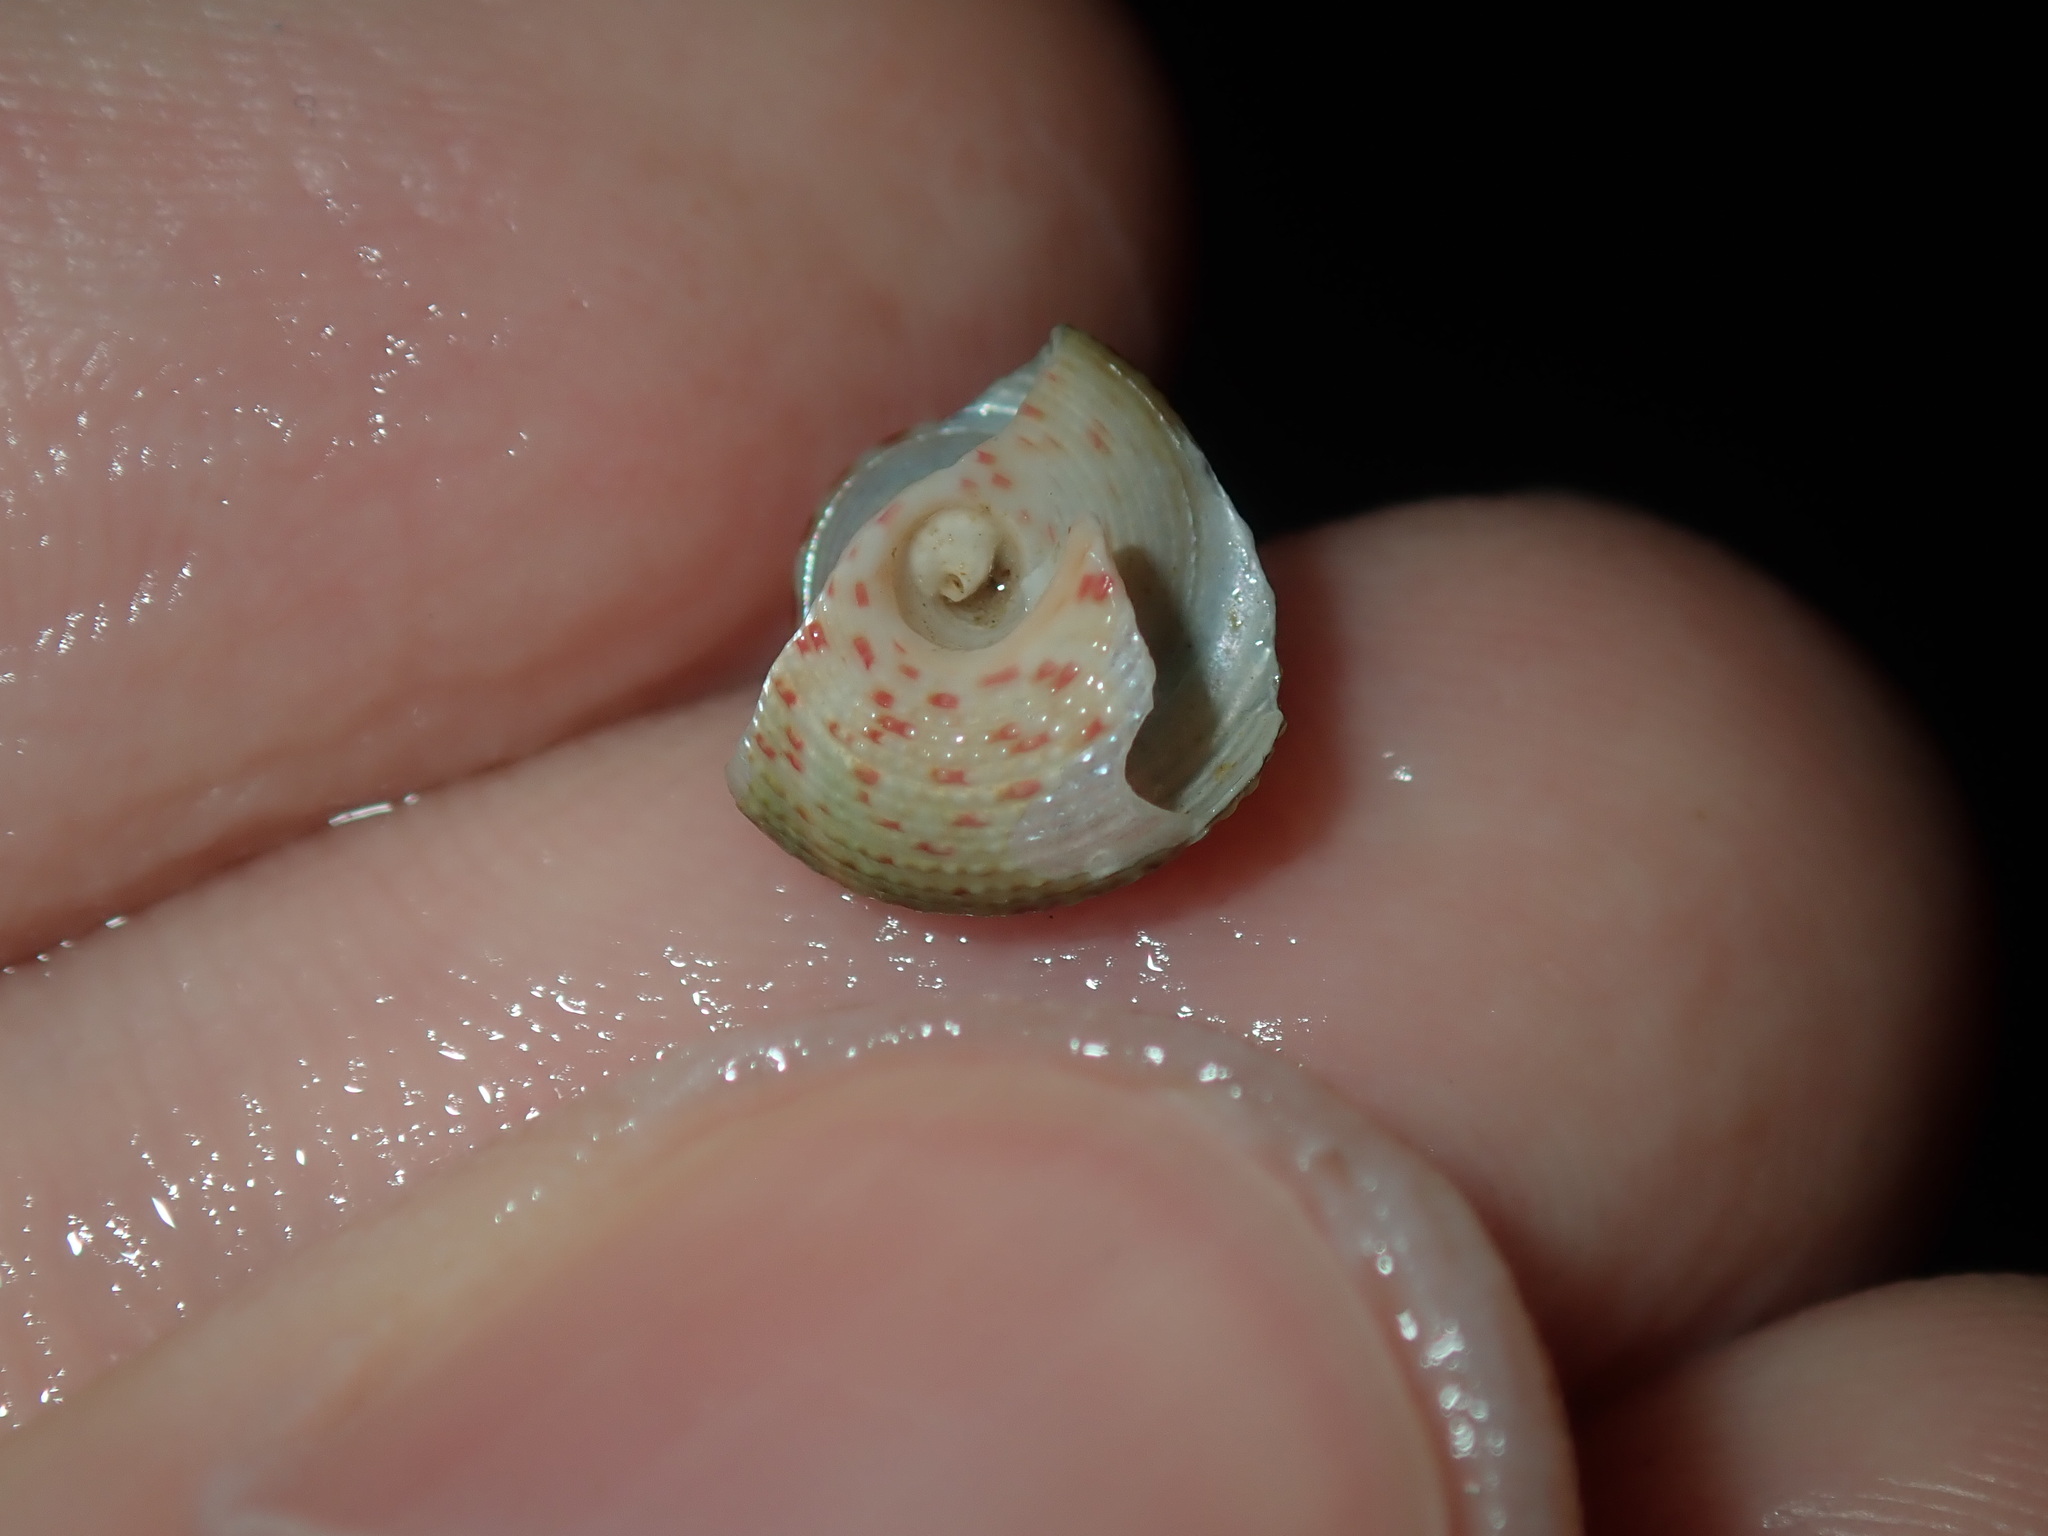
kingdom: Animalia
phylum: Mollusca
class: Gastropoda
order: Trochida
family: Trochidae
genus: Clanculus
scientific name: Clanculus clangulus
